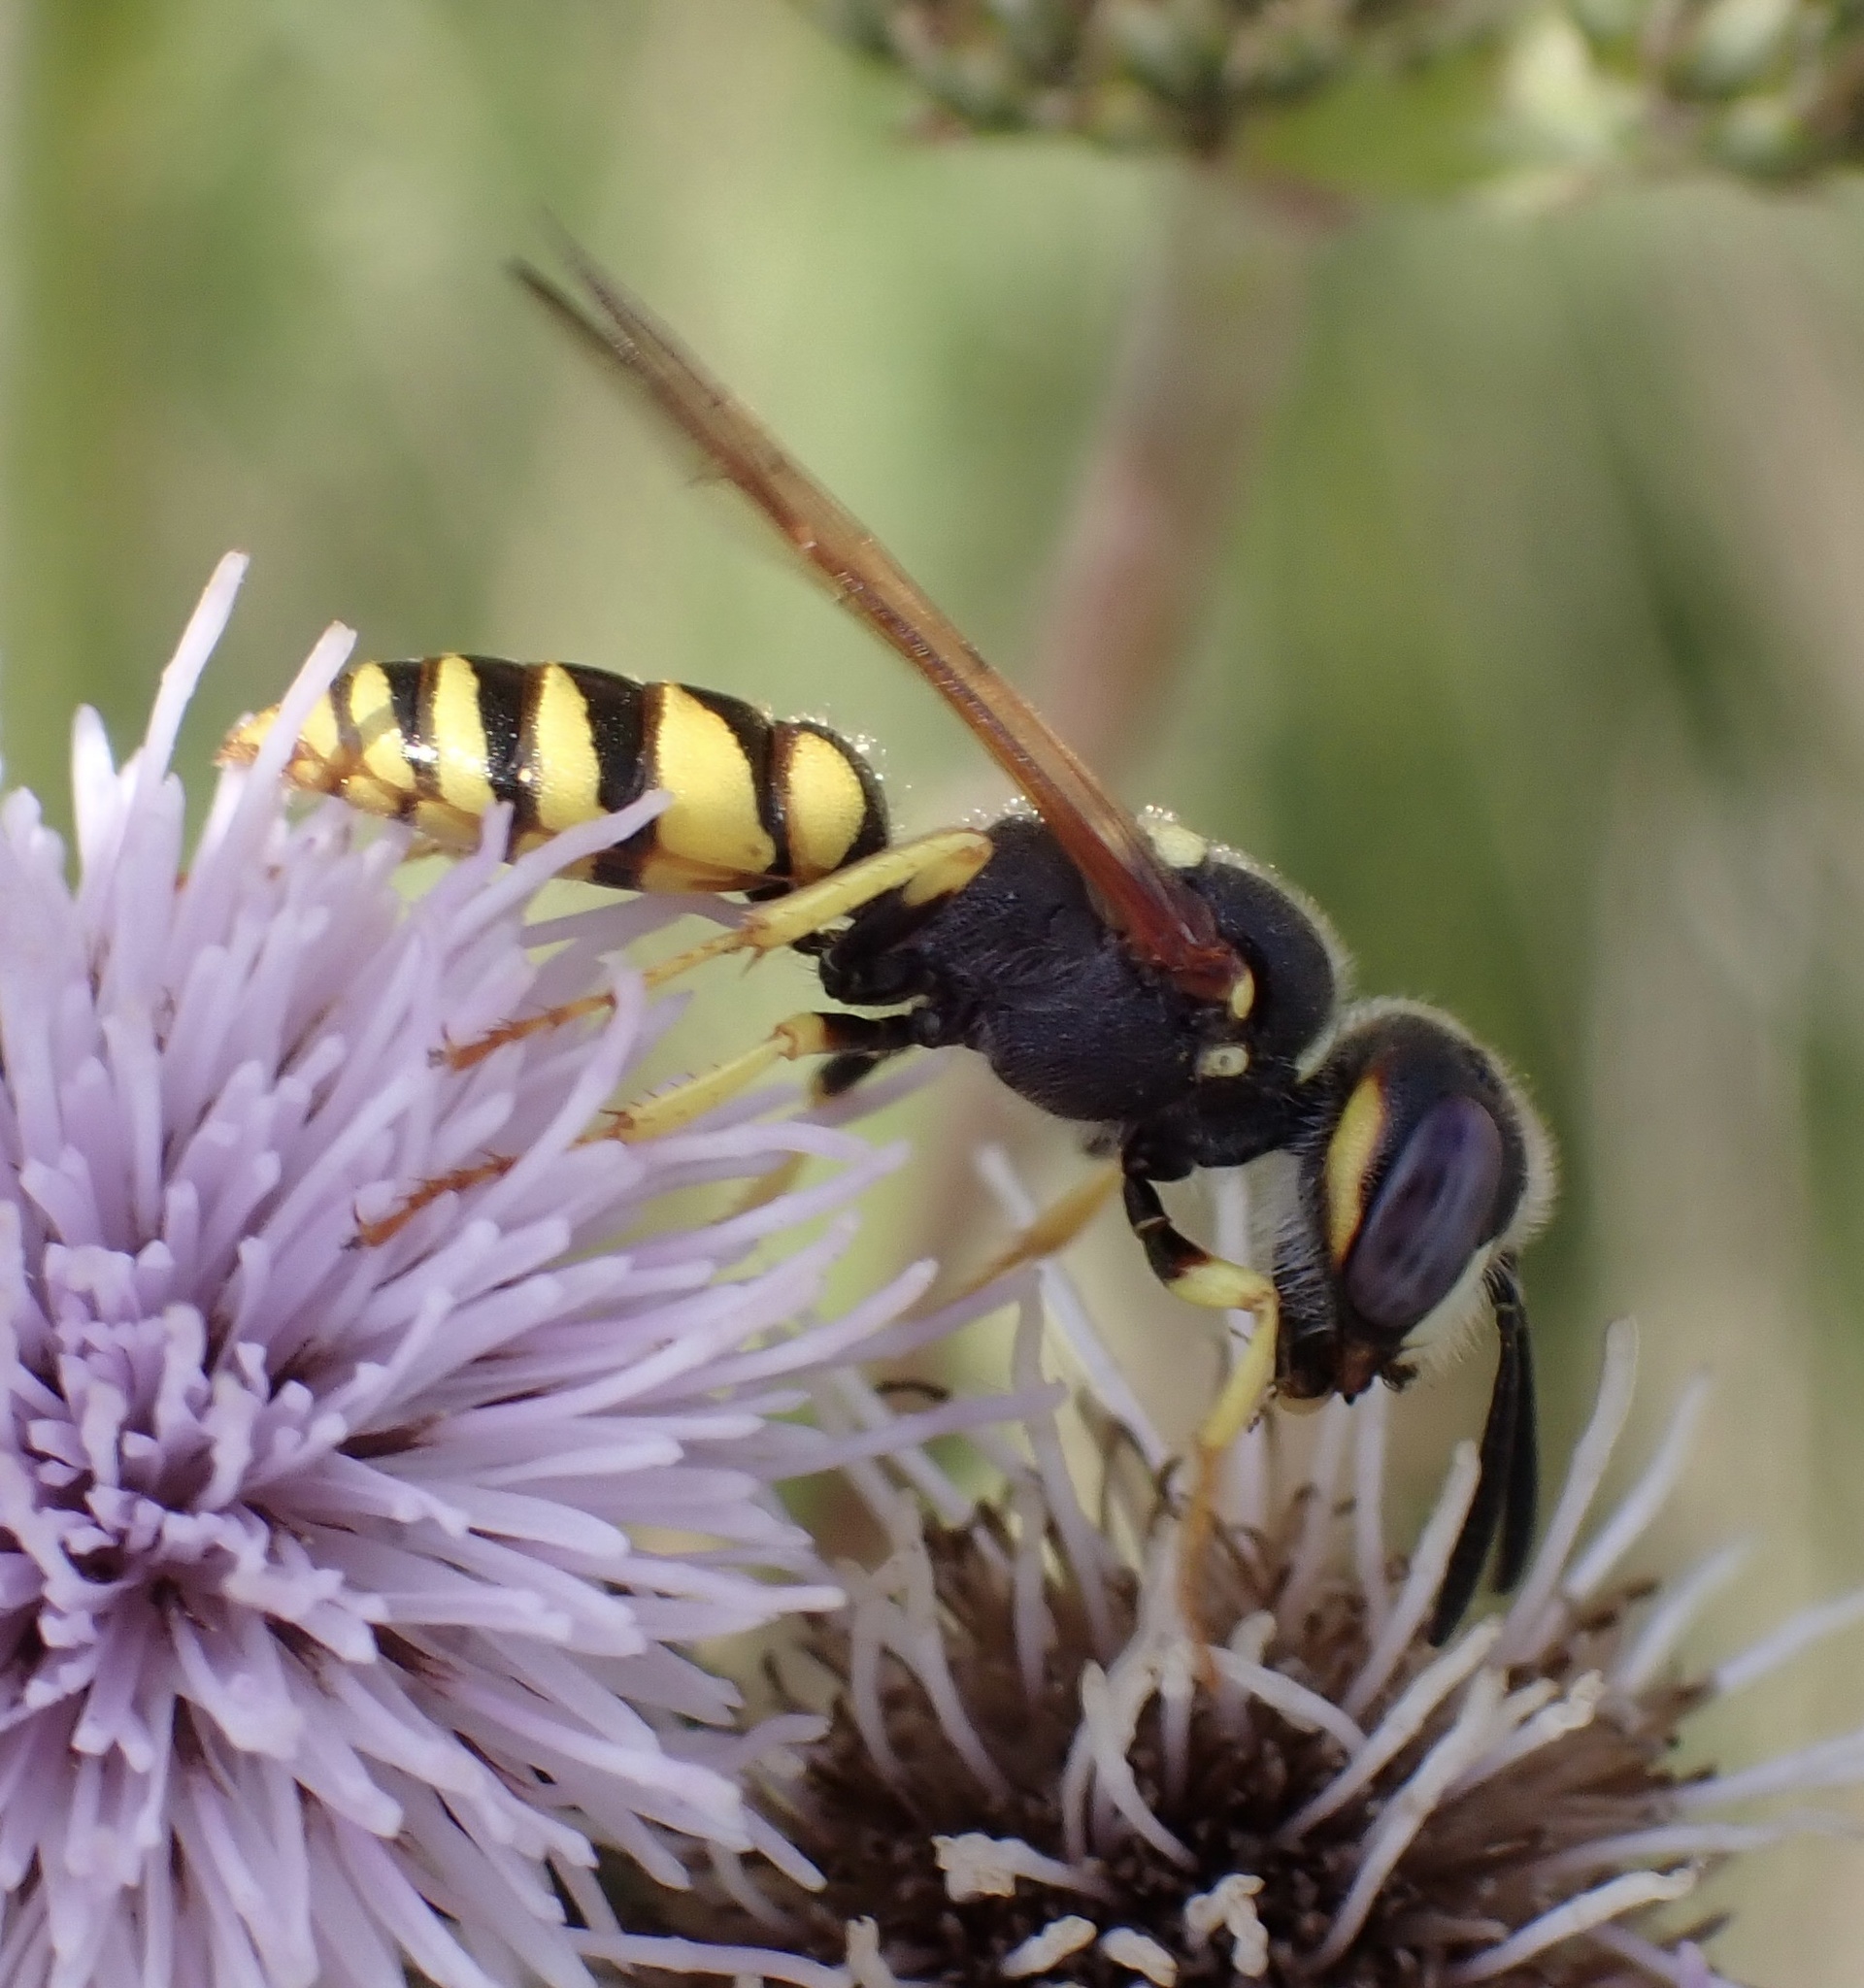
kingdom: Animalia
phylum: Arthropoda
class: Insecta
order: Hymenoptera
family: Crabronidae
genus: Philanthus
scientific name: Philanthus triangulum
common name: Bee wolf
